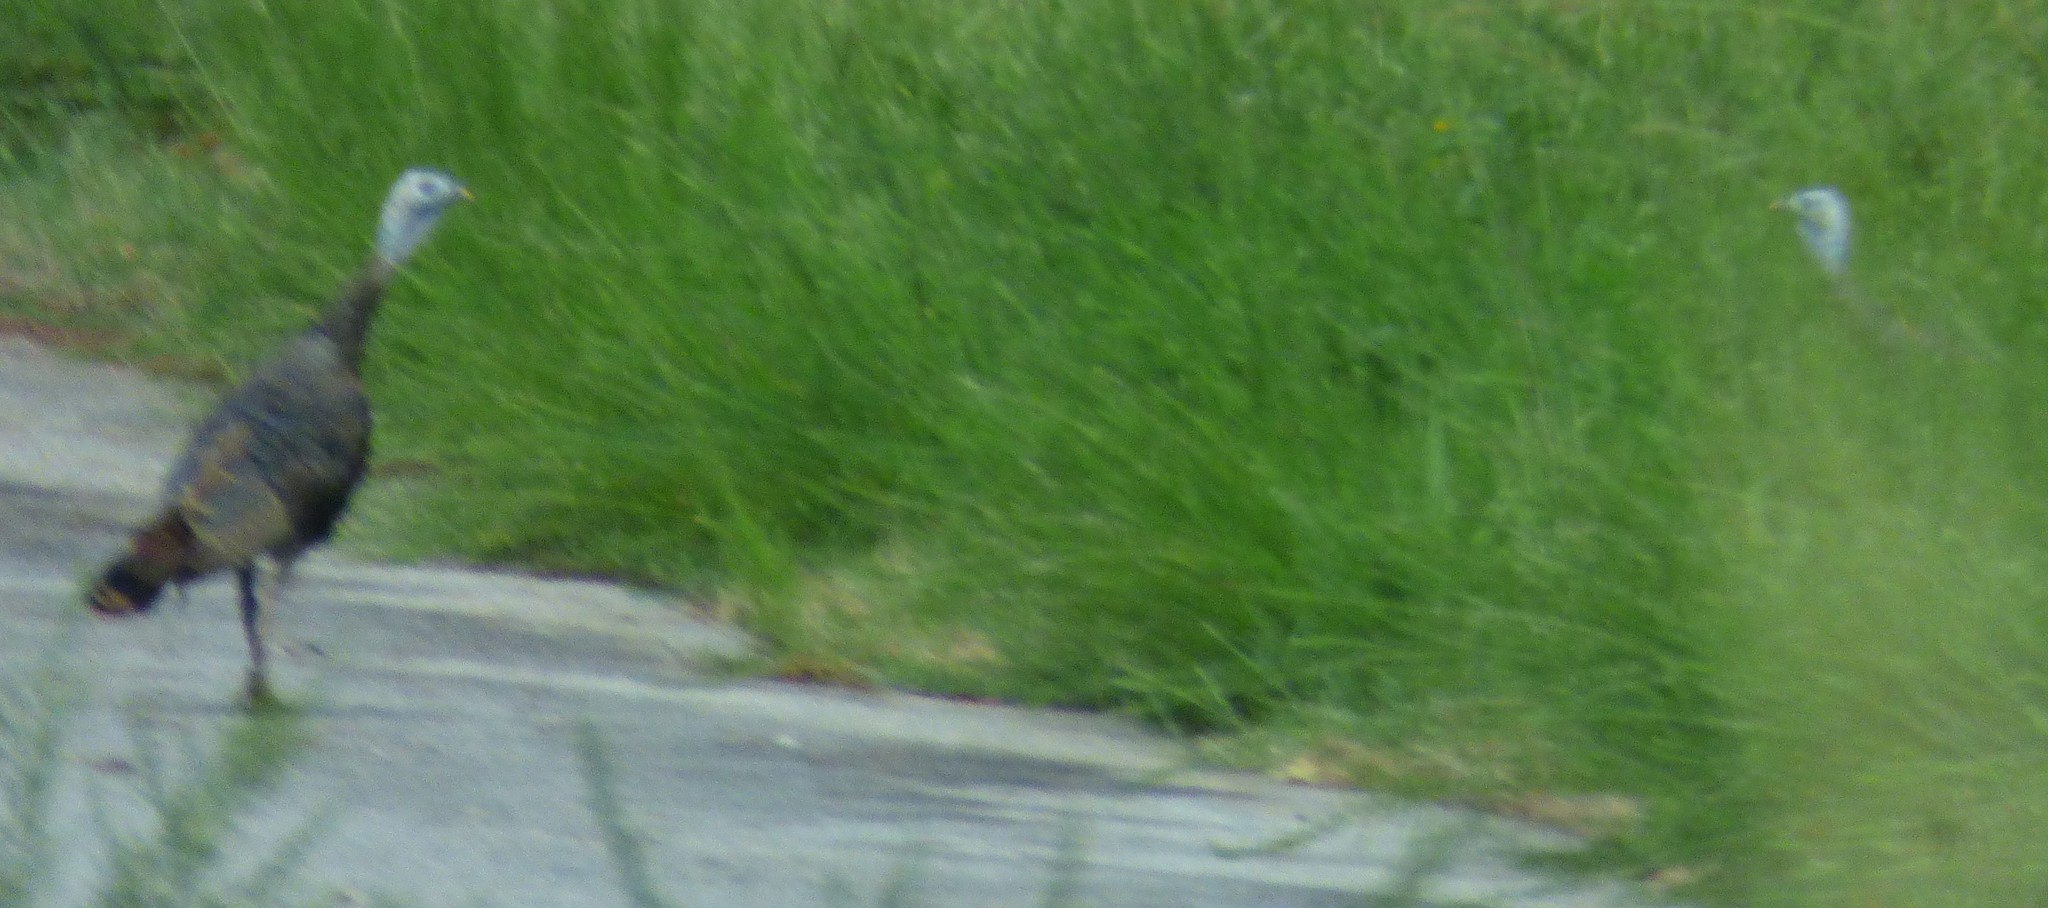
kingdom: Animalia
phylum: Chordata
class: Aves
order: Galliformes
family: Phasianidae
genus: Meleagris
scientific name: Meleagris gallopavo
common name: Wild turkey
